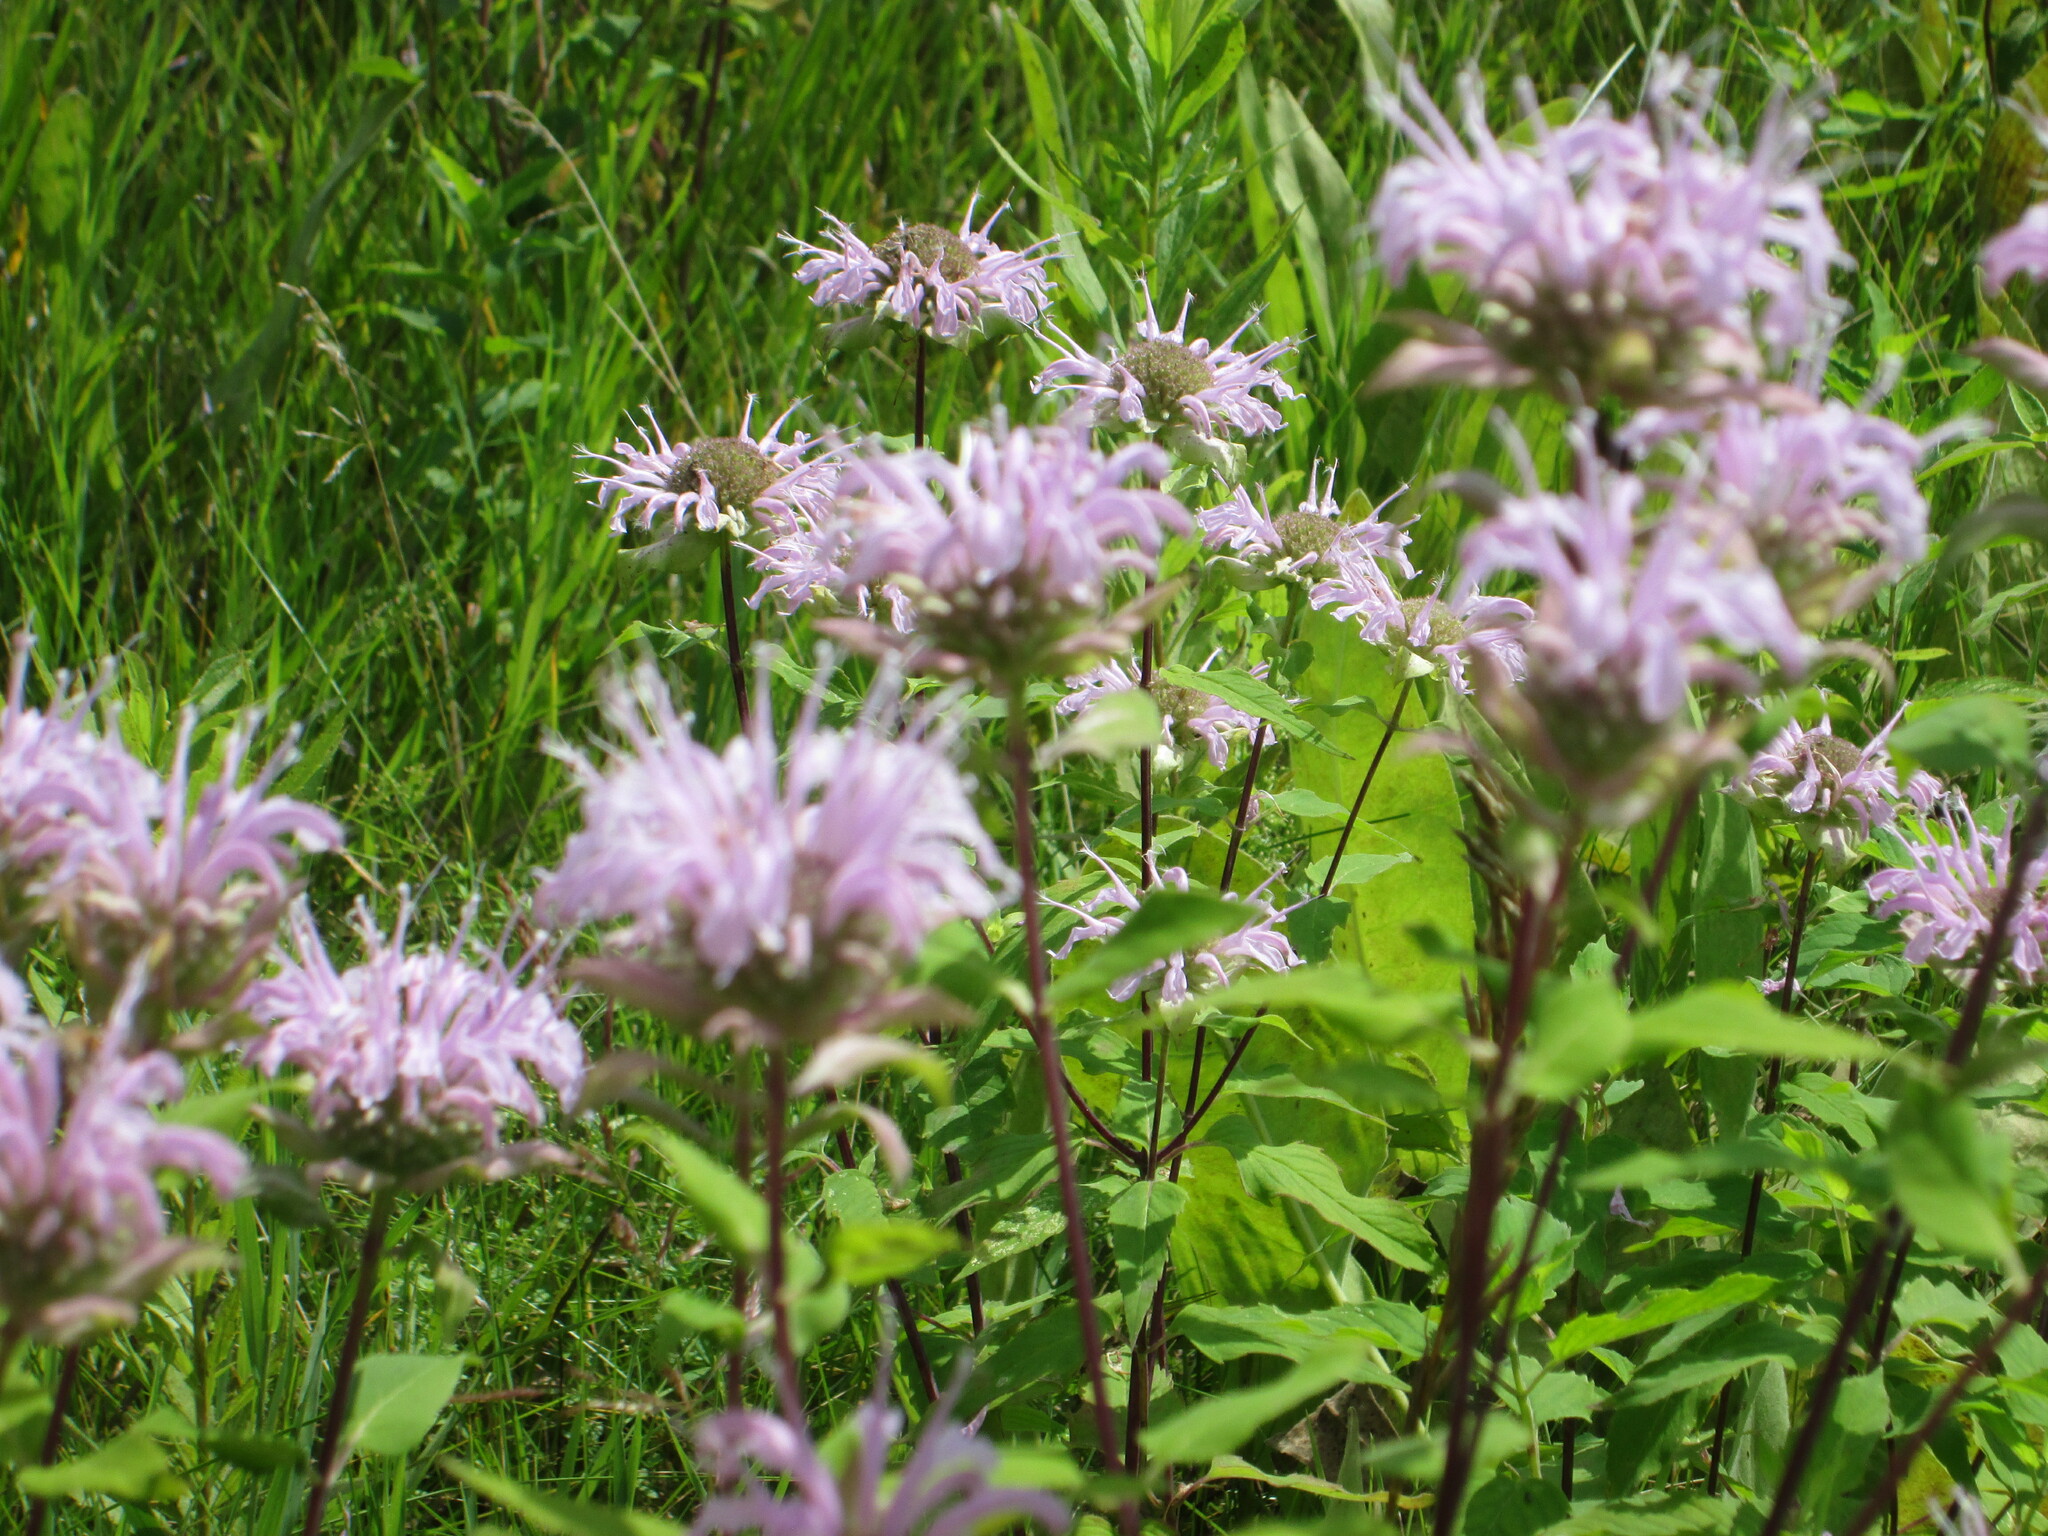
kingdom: Plantae
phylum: Tracheophyta
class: Magnoliopsida
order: Lamiales
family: Lamiaceae
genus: Monarda
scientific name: Monarda fistulosa
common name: Purple beebalm
